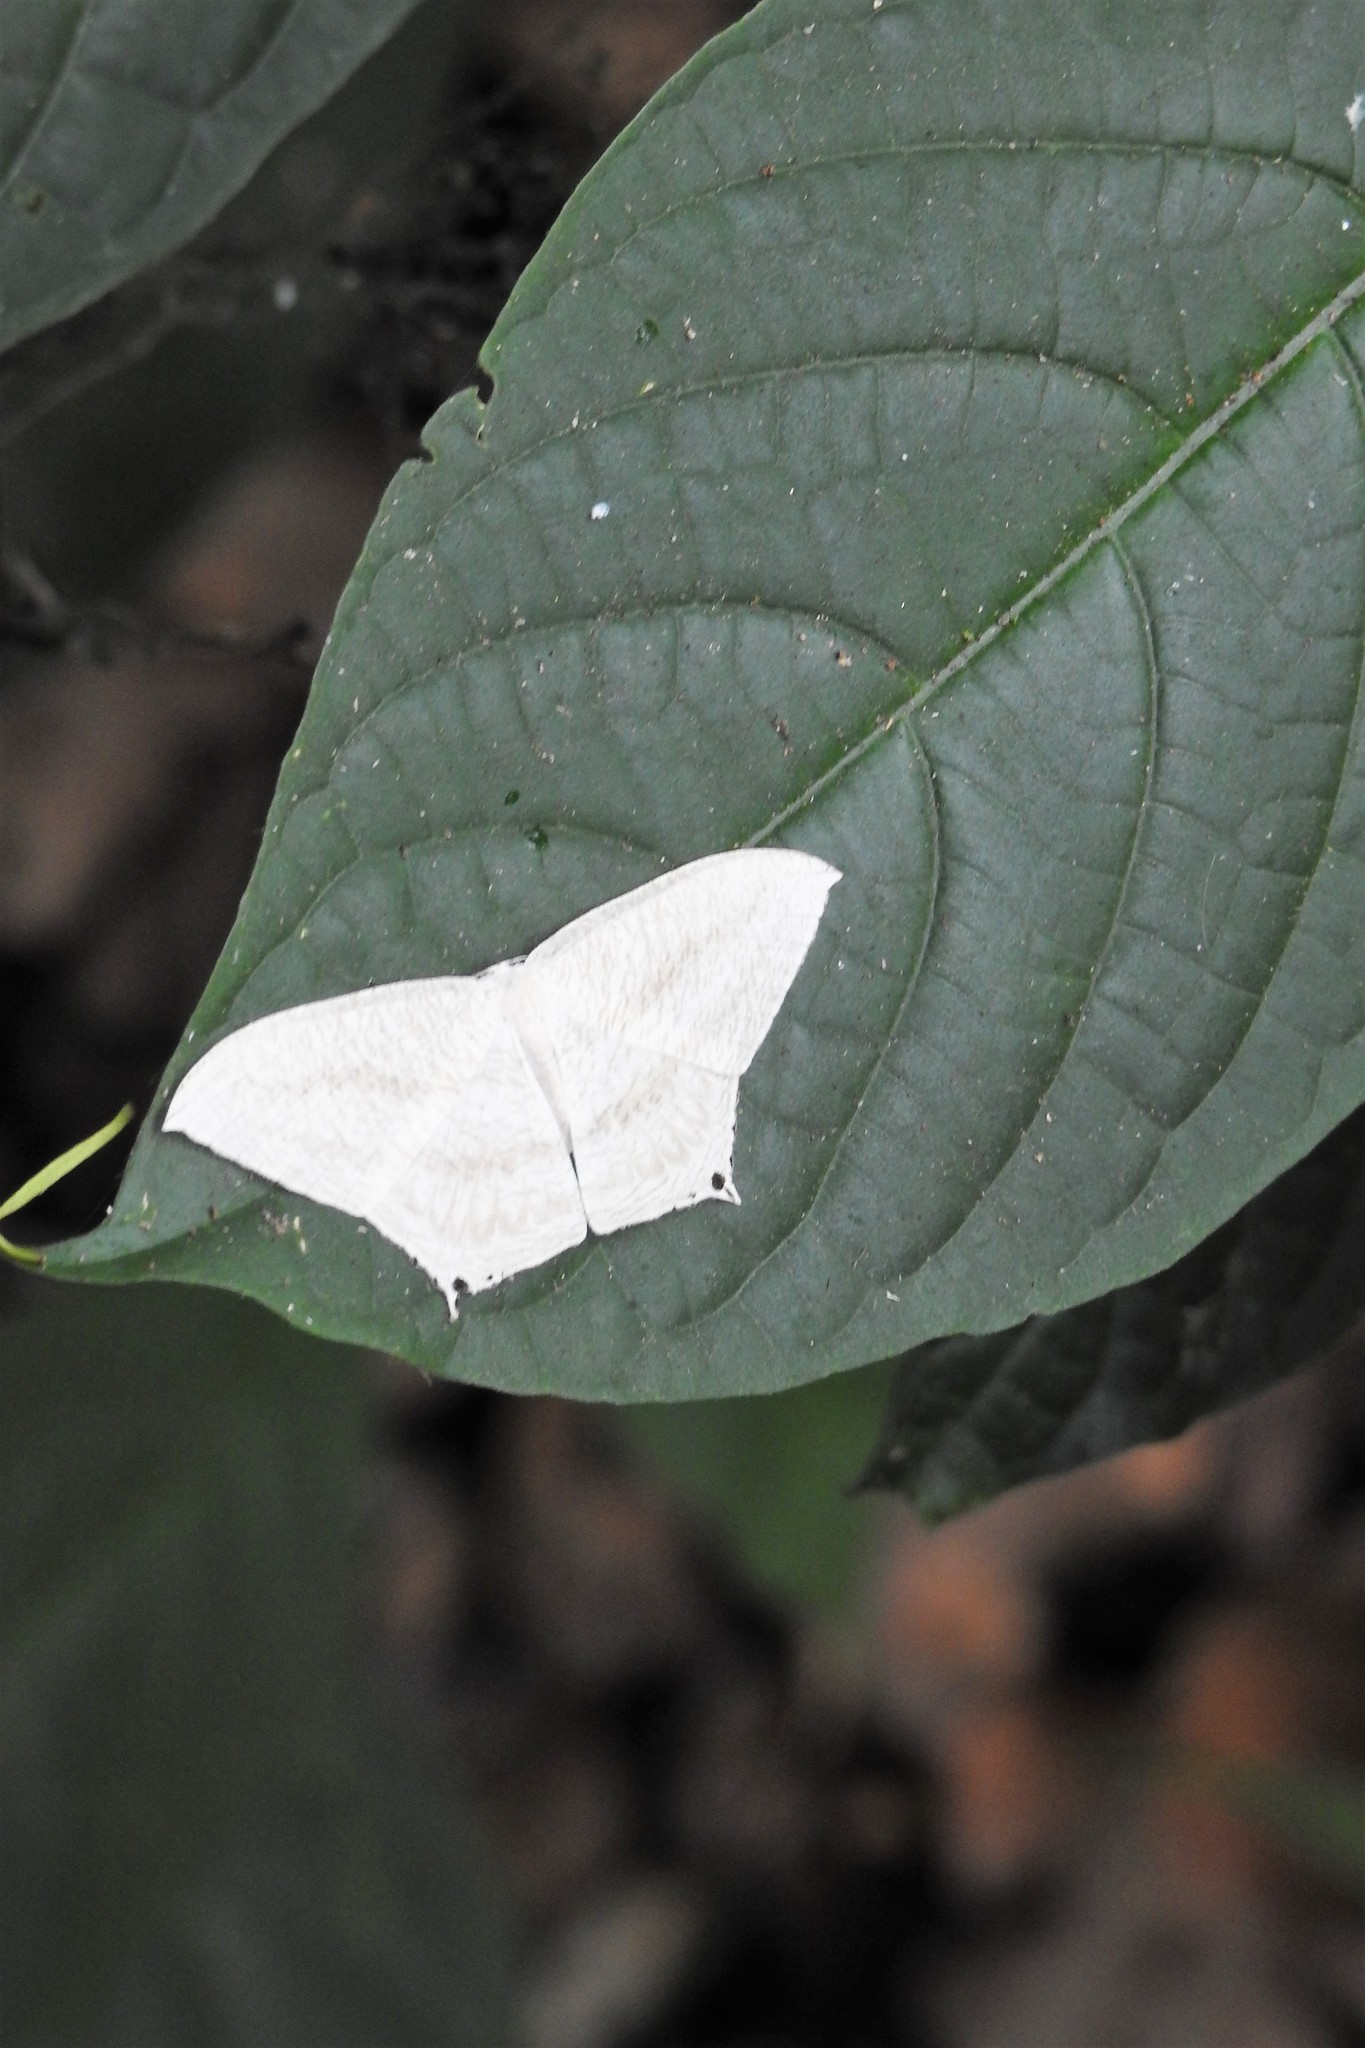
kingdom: Animalia
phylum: Arthropoda
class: Insecta
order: Lepidoptera
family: Uraniidae
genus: Micronia
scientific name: Micronia aculeata
